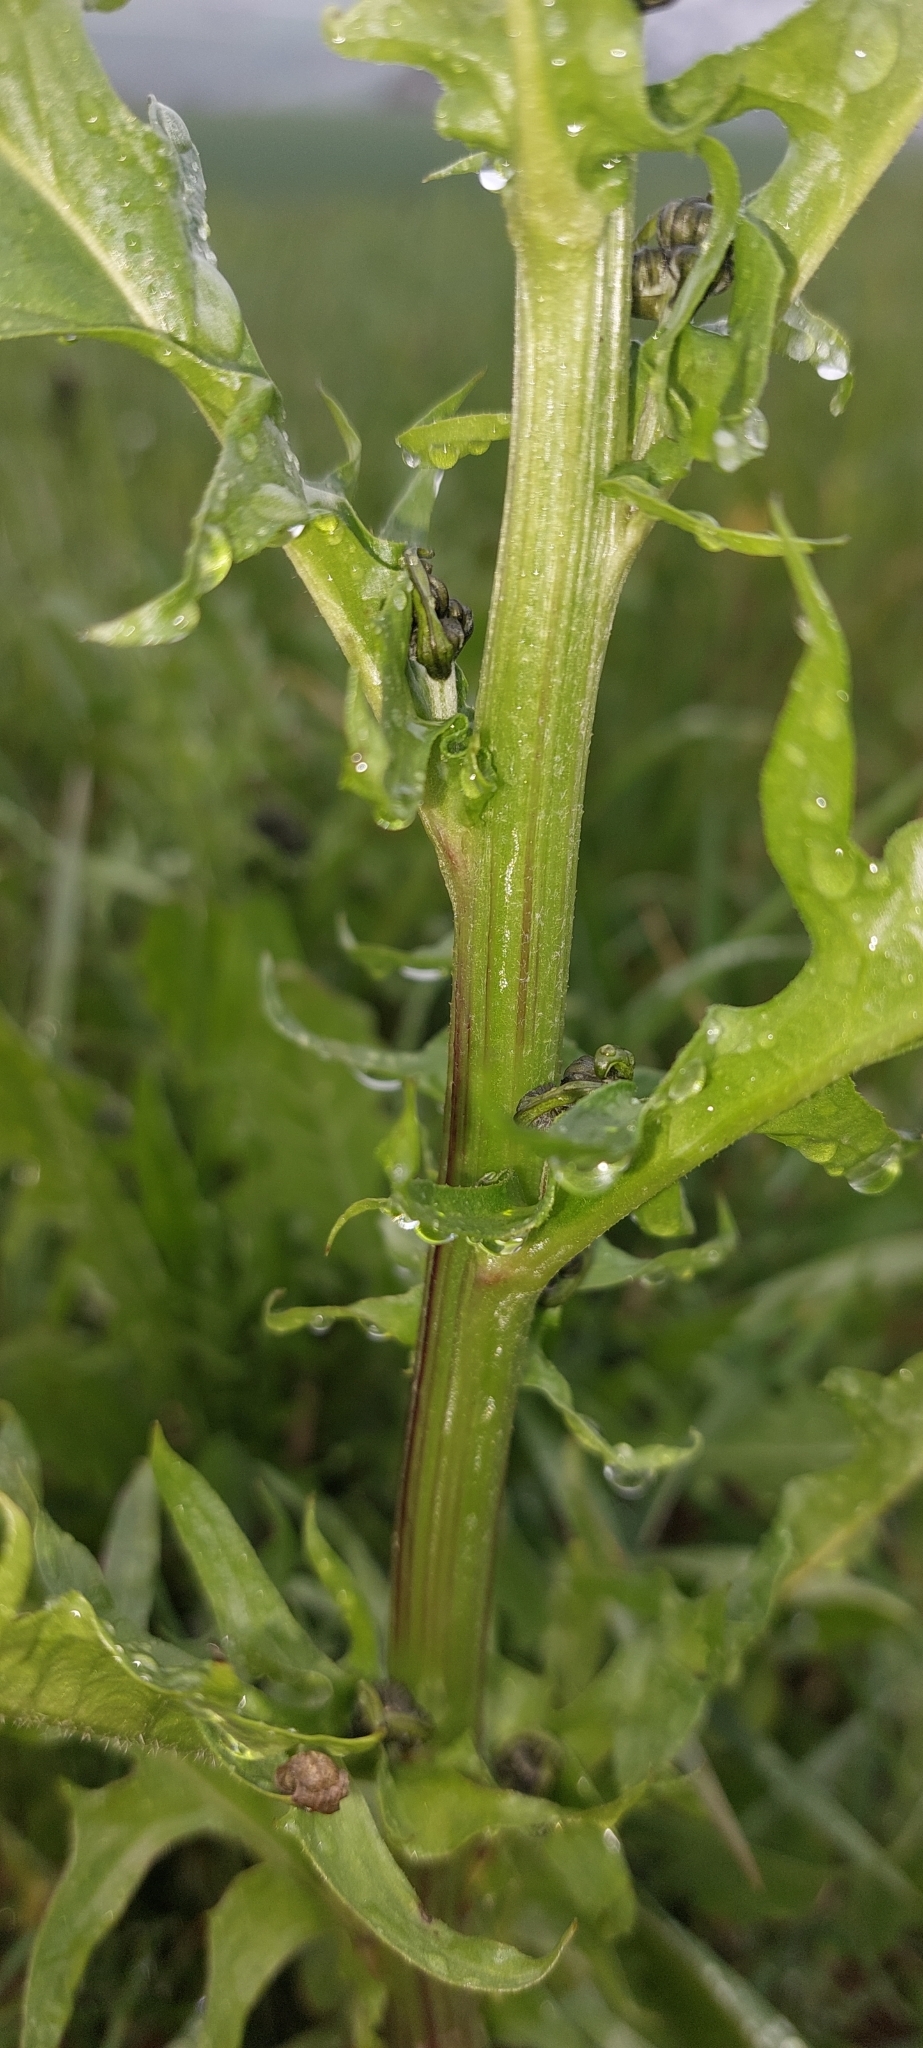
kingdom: Plantae
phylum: Tracheophyta
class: Magnoliopsida
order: Asterales
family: Asteraceae
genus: Crepis
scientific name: Crepis biennis
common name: Rough hawk's-beard
